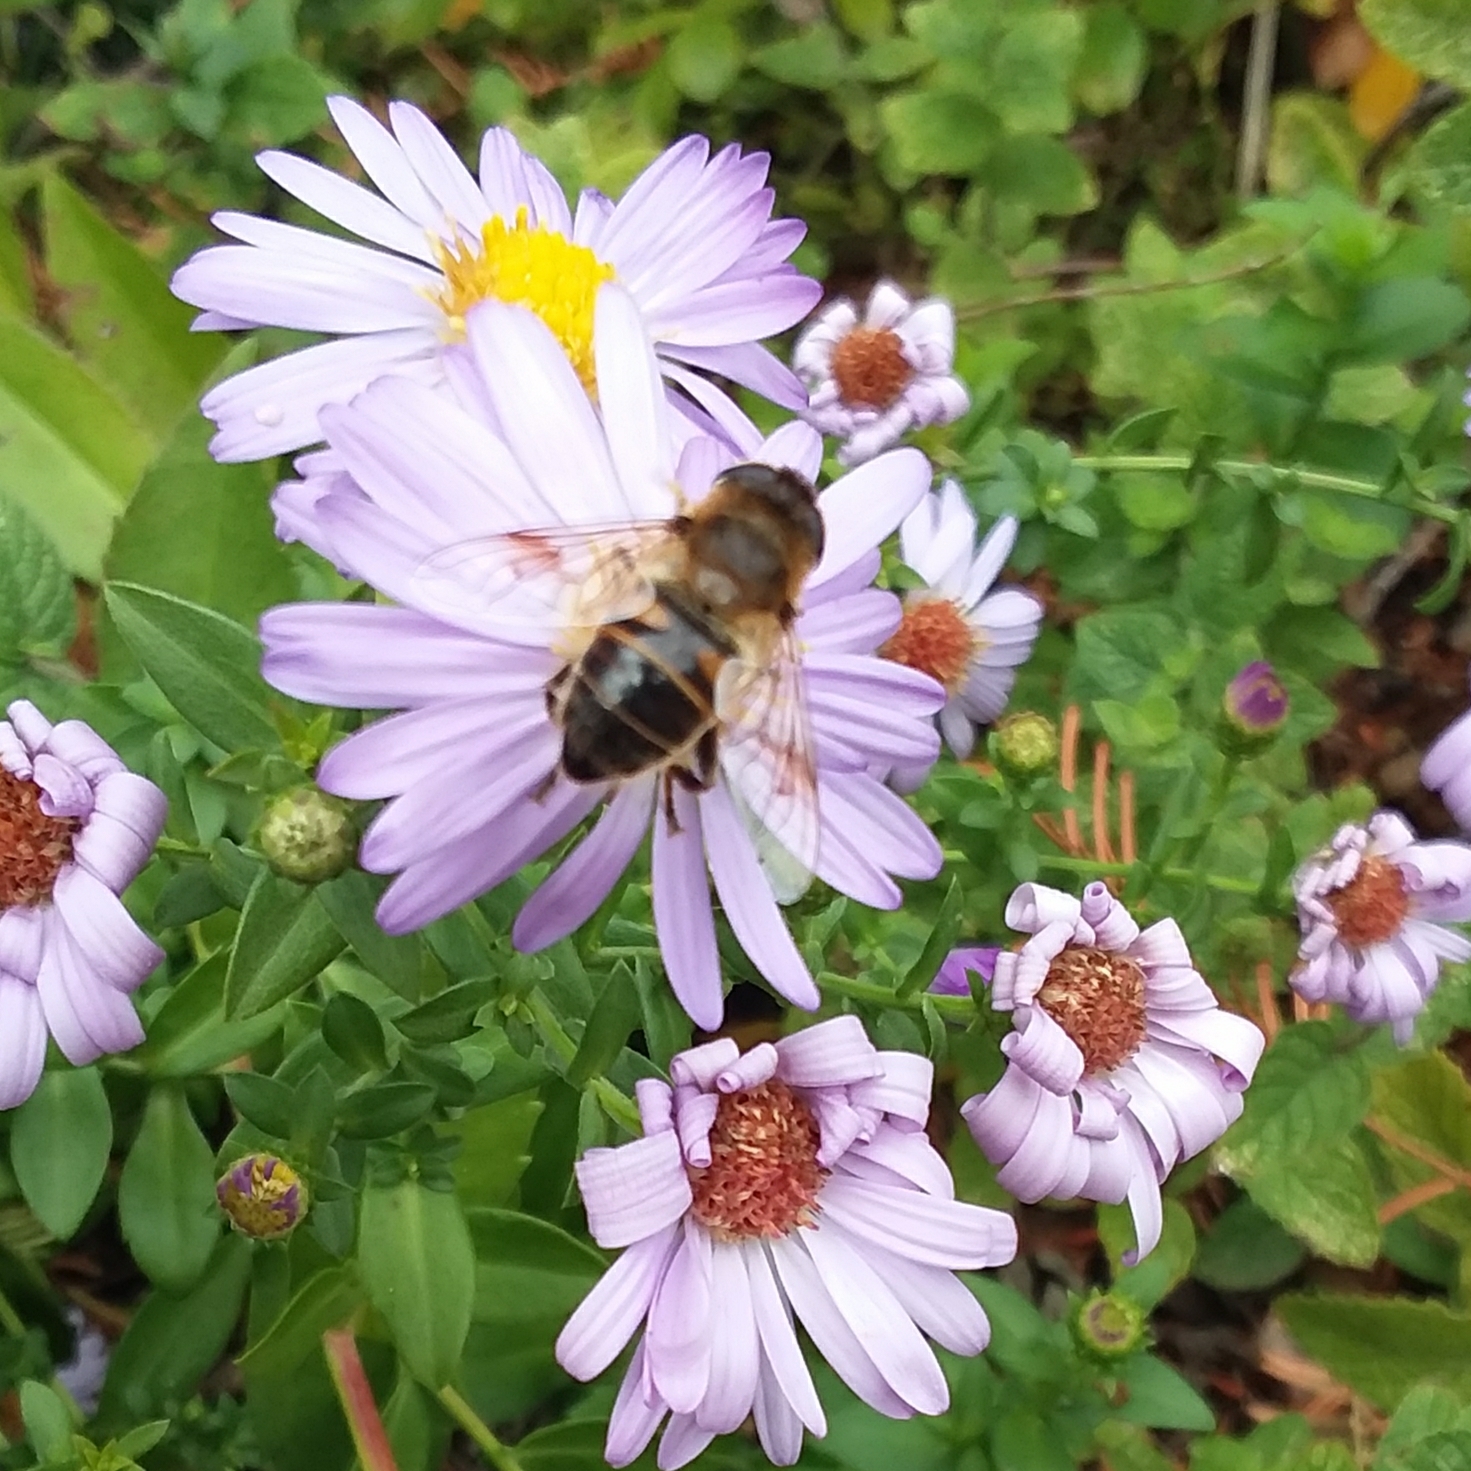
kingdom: Animalia
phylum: Arthropoda
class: Insecta
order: Diptera
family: Syrphidae
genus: Eristalis
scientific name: Eristalis tenax
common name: Drone fly
